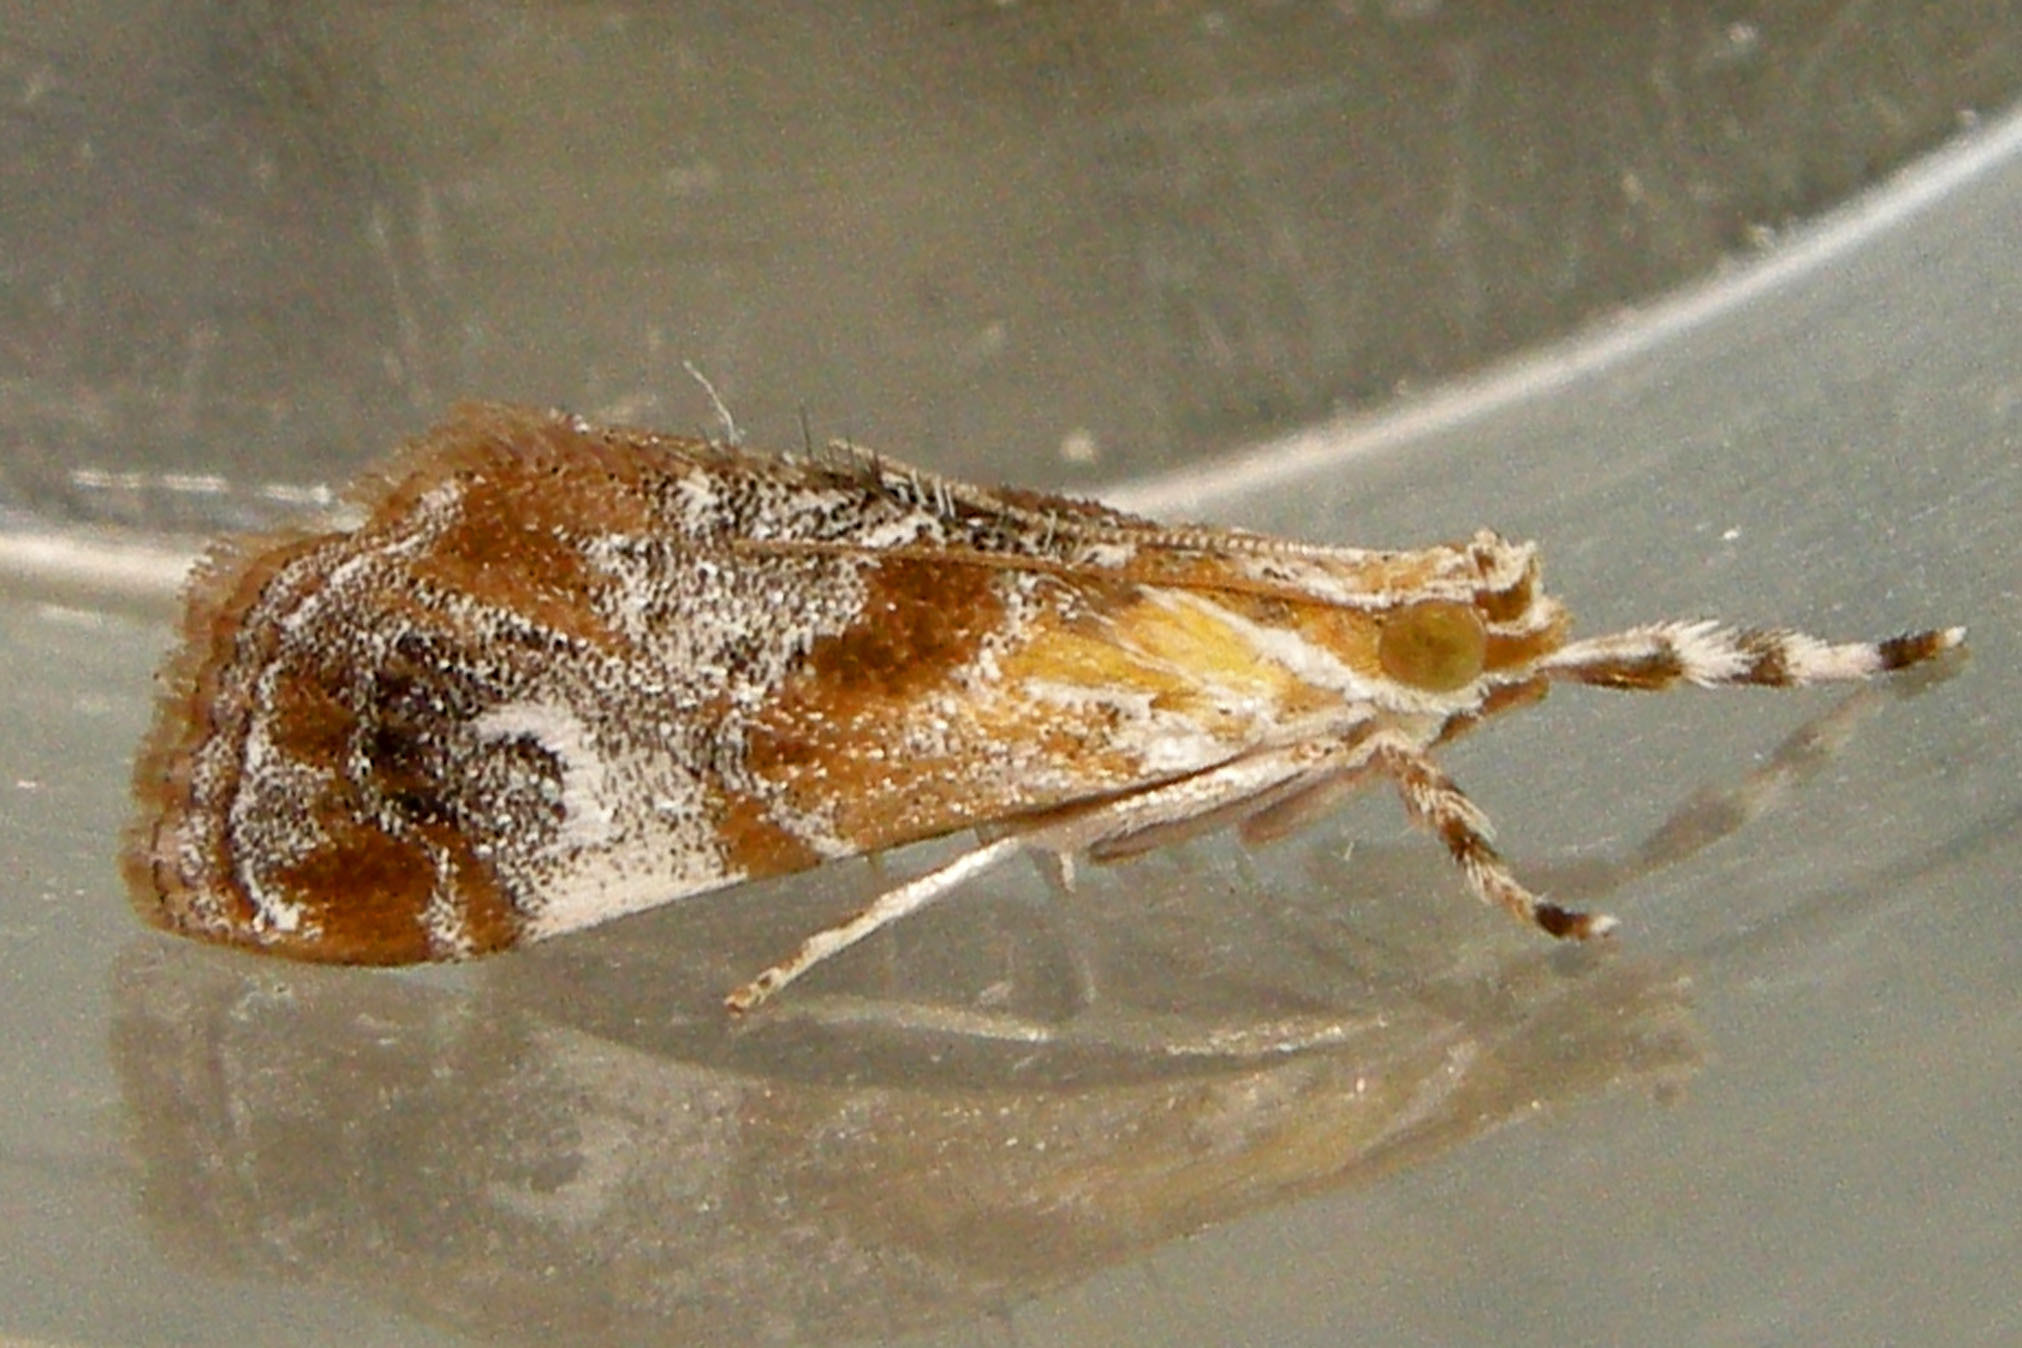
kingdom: Animalia
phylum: Arthropoda
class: Insecta
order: Lepidoptera
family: Crambidae
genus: Dicymolomia
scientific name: Dicymolomia julianalis
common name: Julia's dicymolomia moth
